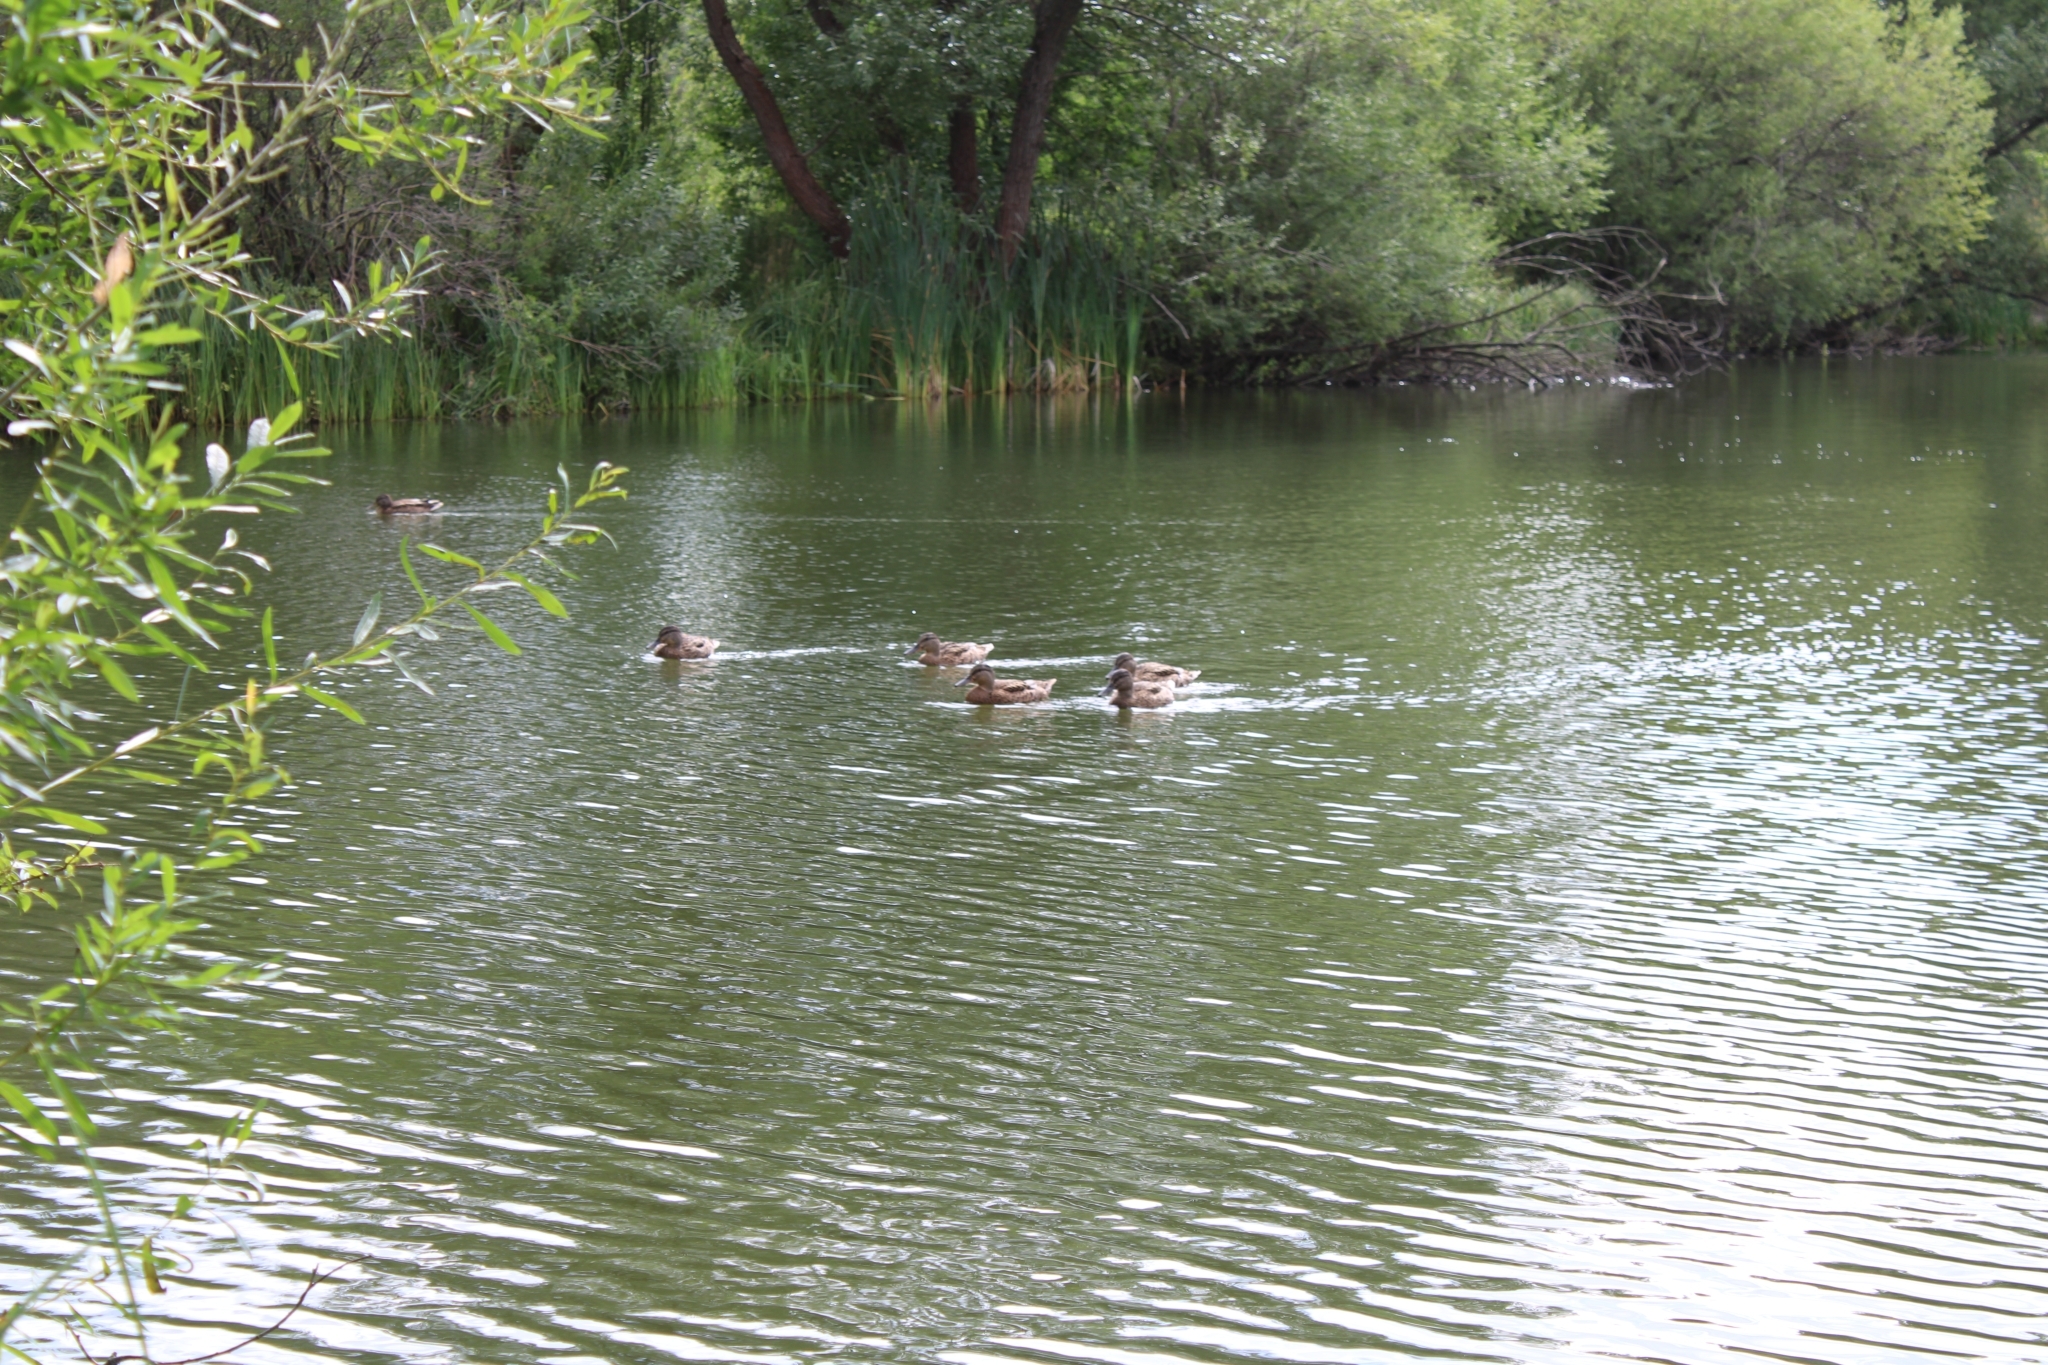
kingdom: Animalia
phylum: Chordata
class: Aves
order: Anseriformes
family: Anatidae
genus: Anas
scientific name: Anas platyrhynchos
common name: Mallard
